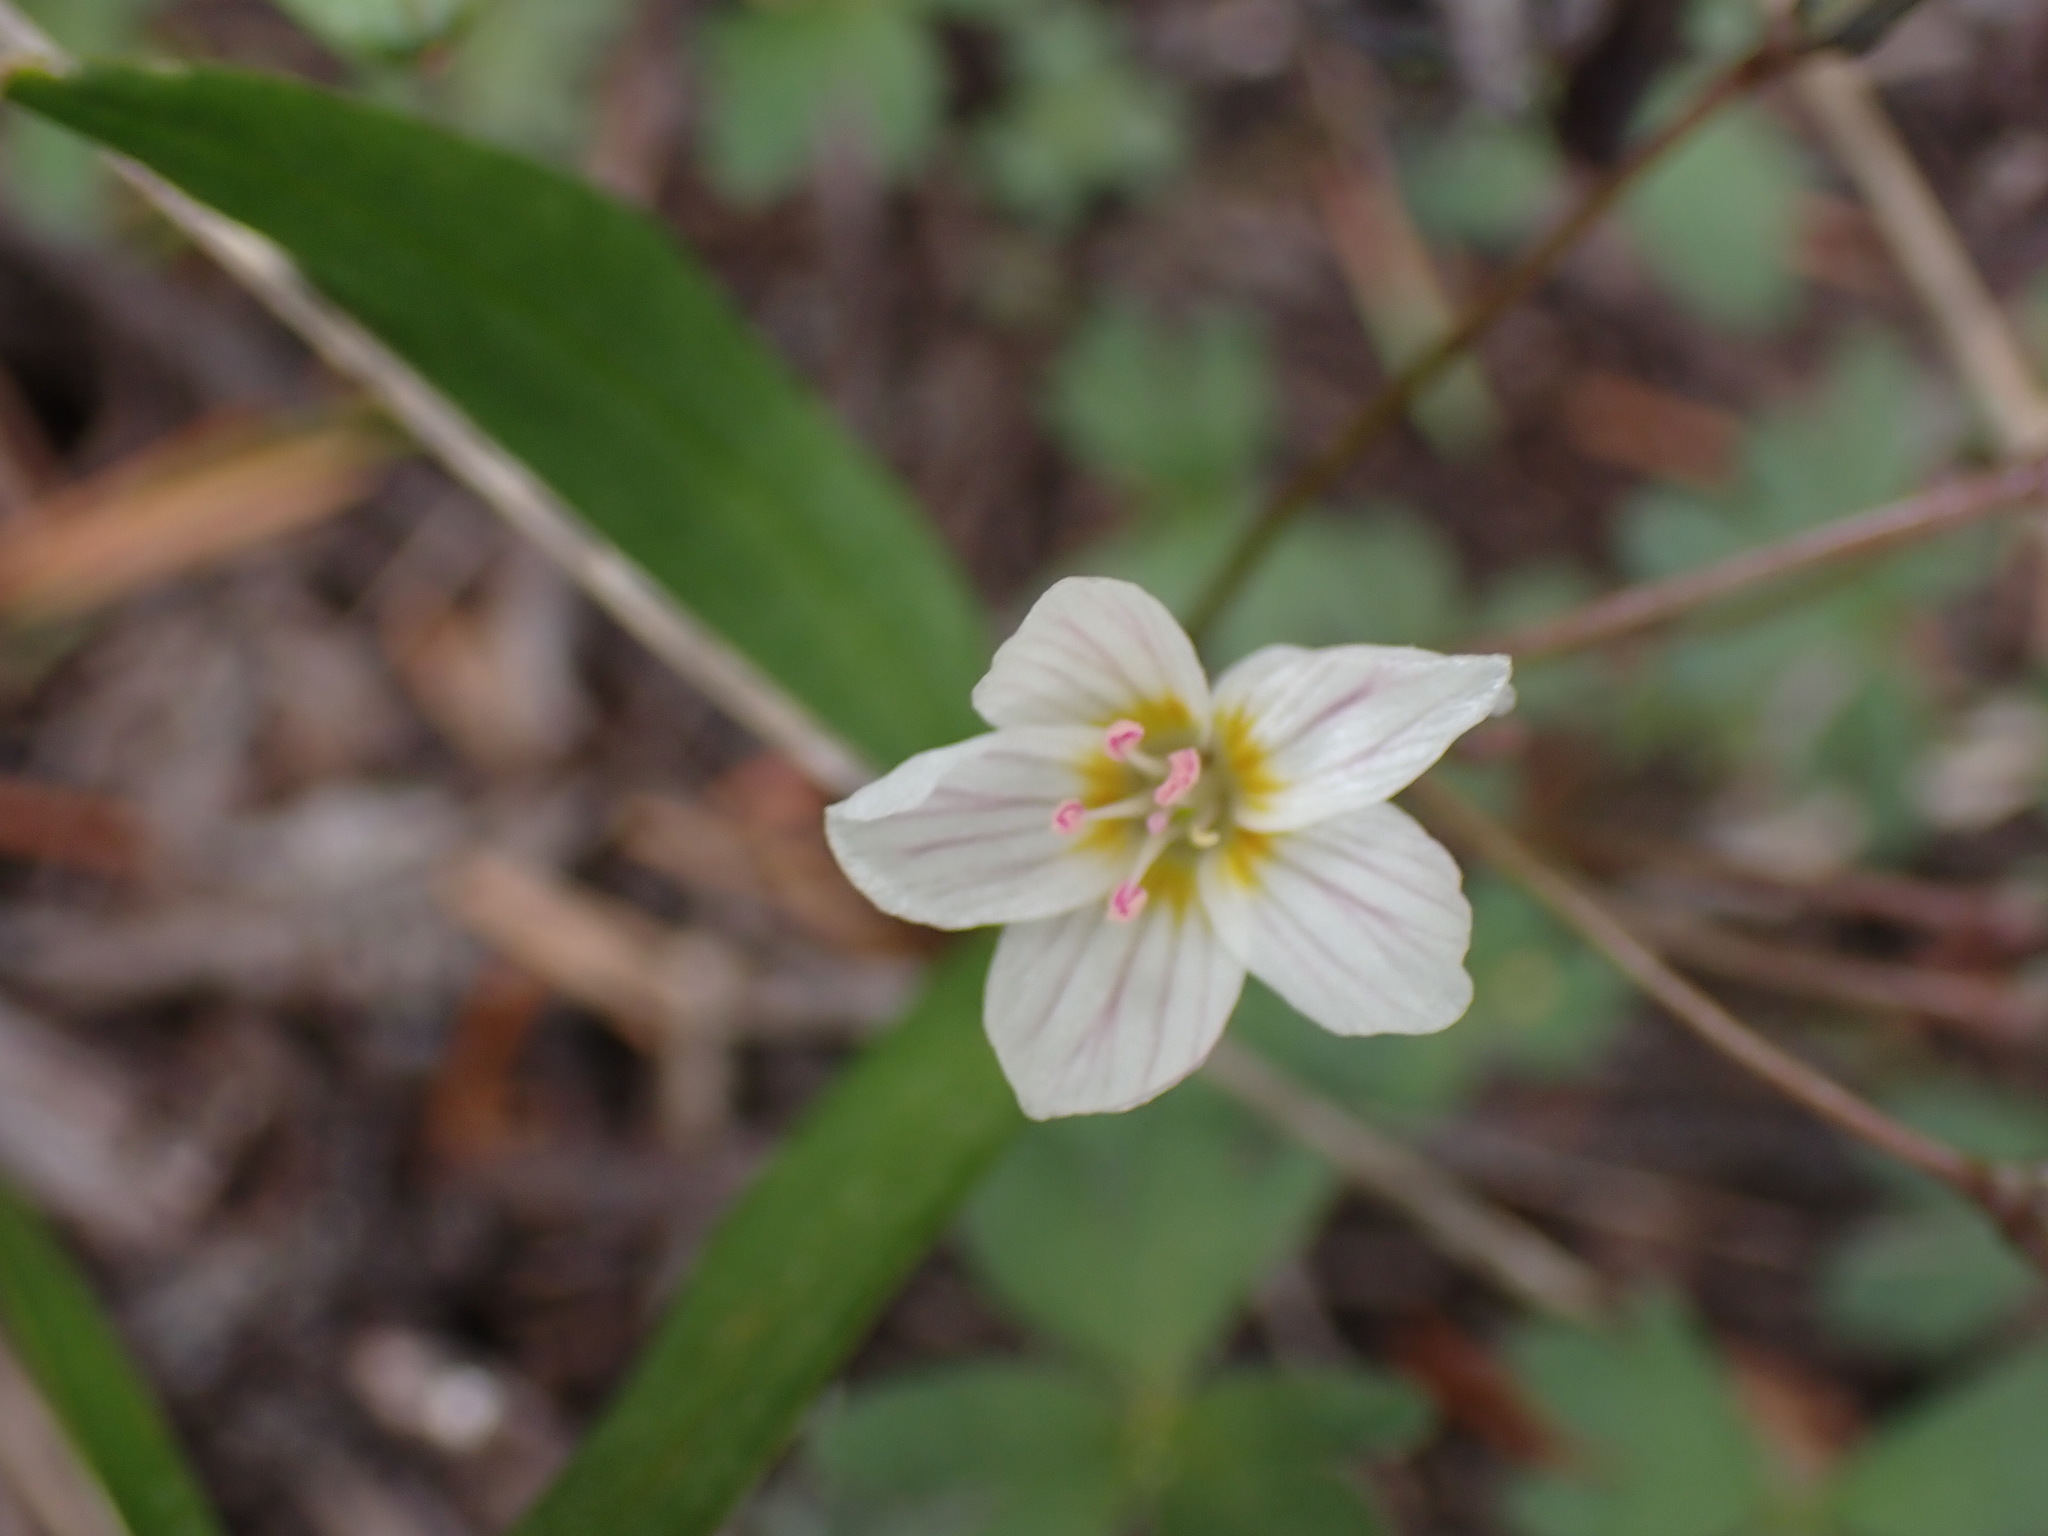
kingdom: Plantae
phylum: Tracheophyta
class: Magnoliopsida
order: Caryophyllales
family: Montiaceae
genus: Claytonia
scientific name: Claytonia lanceolata
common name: Western spring-beauty
